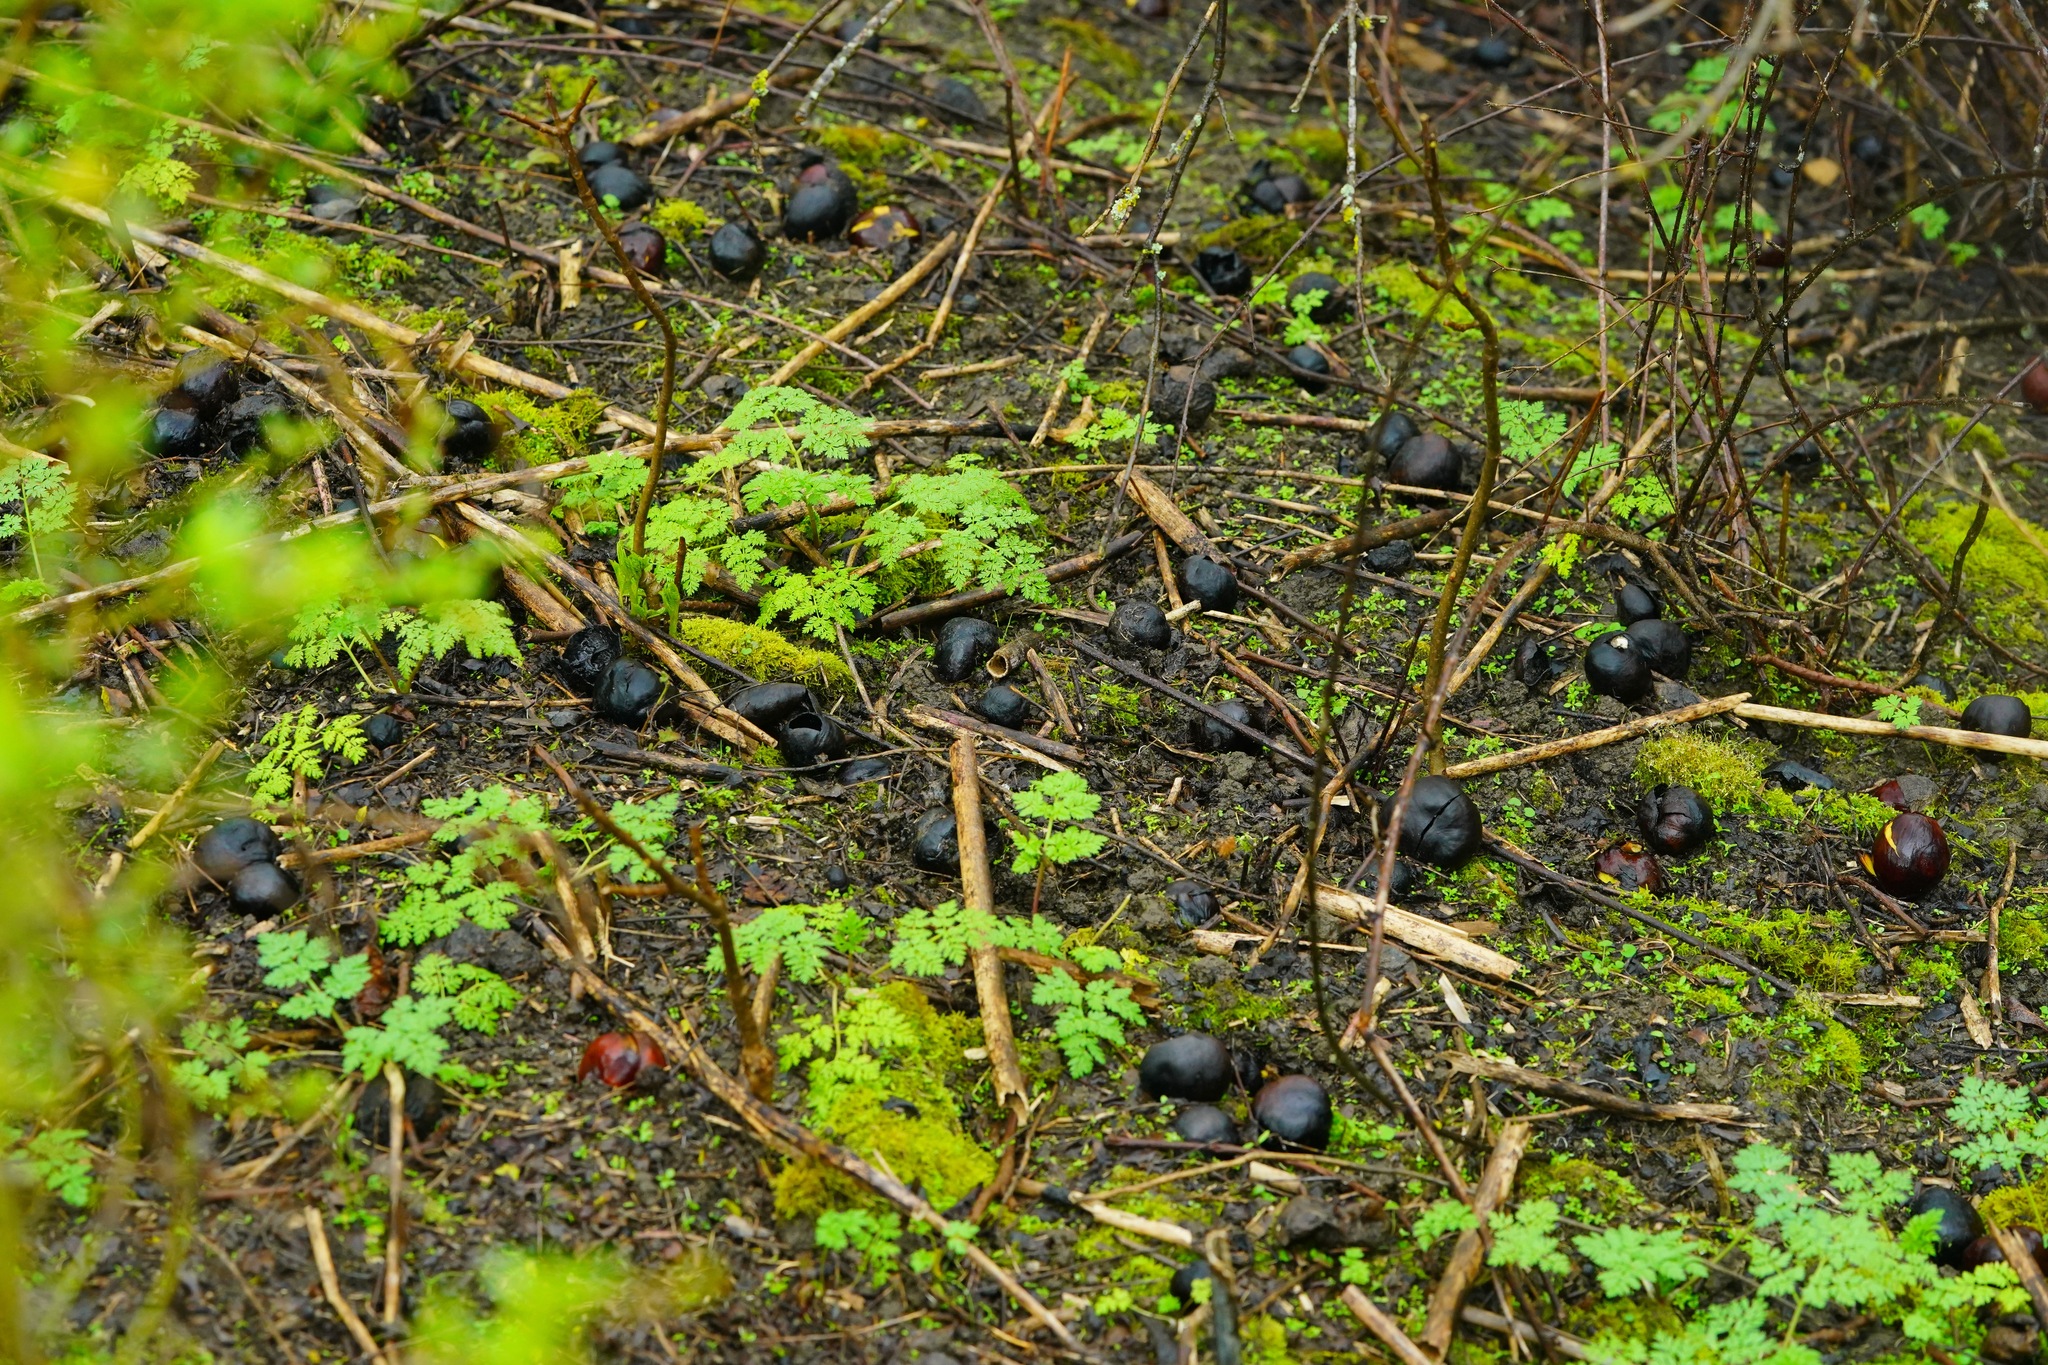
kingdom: Plantae
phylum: Tracheophyta
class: Magnoliopsida
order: Sapindales
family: Sapindaceae
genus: Aesculus
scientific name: Aesculus californica
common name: California buckeye
